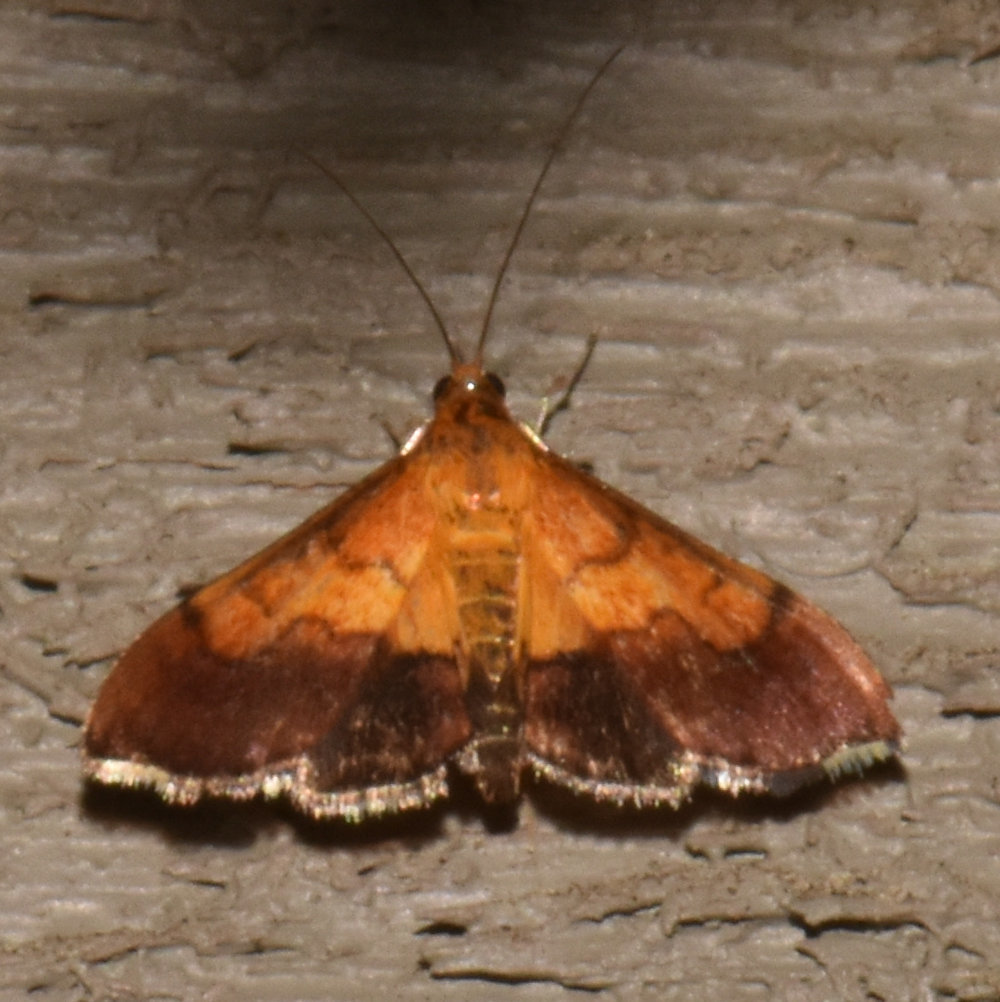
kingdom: Animalia
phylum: Arthropoda
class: Insecta
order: Lepidoptera
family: Crambidae
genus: Pyrausta
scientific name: Pyrausta bicoloralis
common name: Bicolored pyrausta moth
